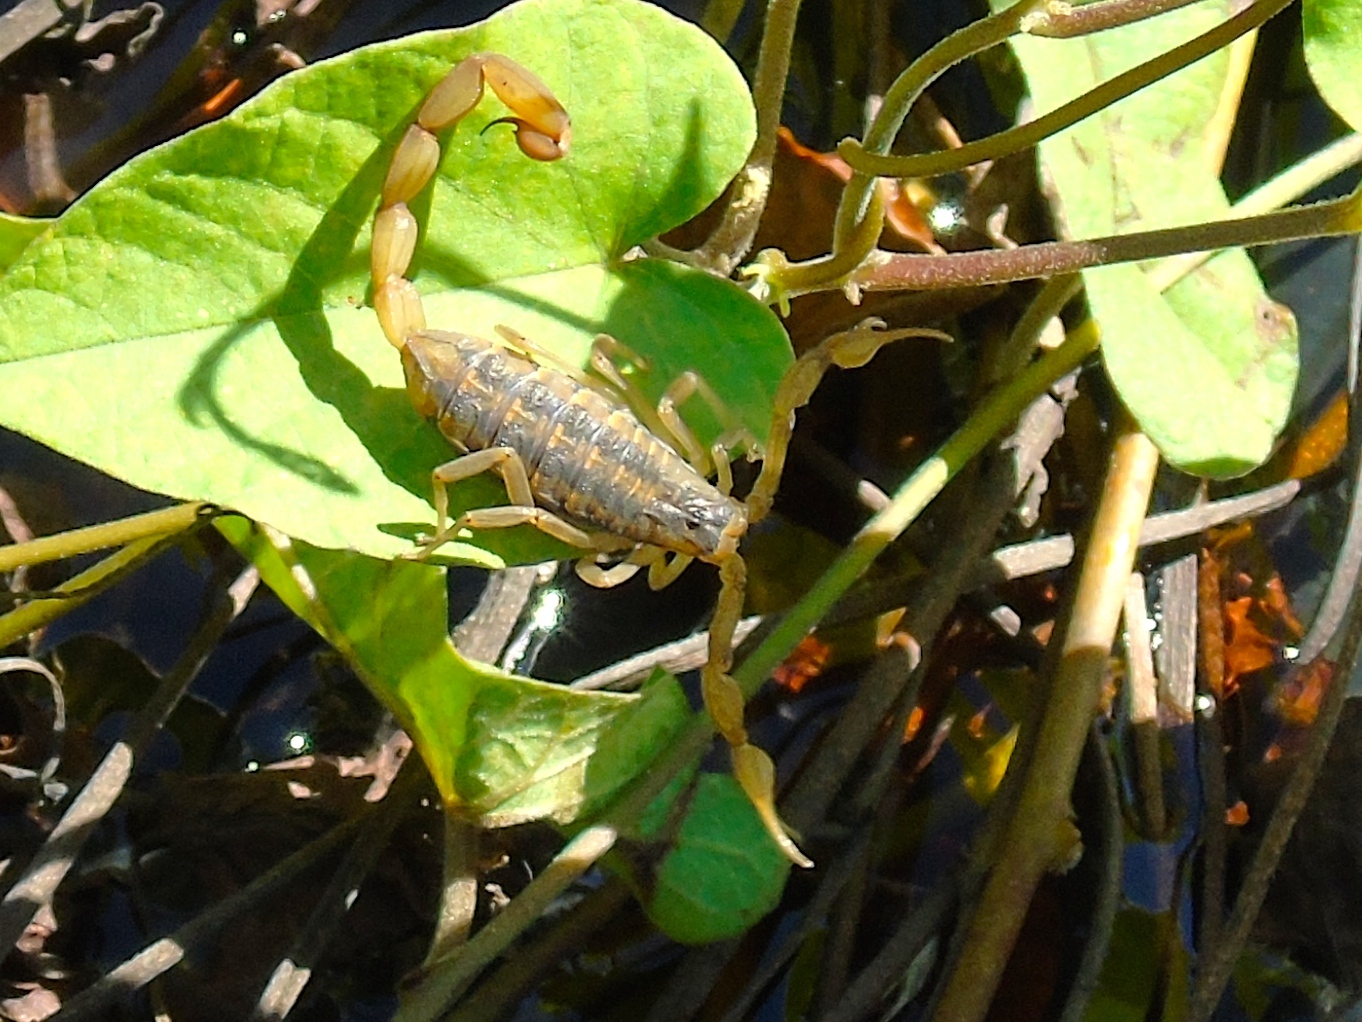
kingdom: Animalia
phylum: Arthropoda
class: Arachnida
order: Scorpiones
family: Buthidae
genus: Centruroides
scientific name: Centruroides
